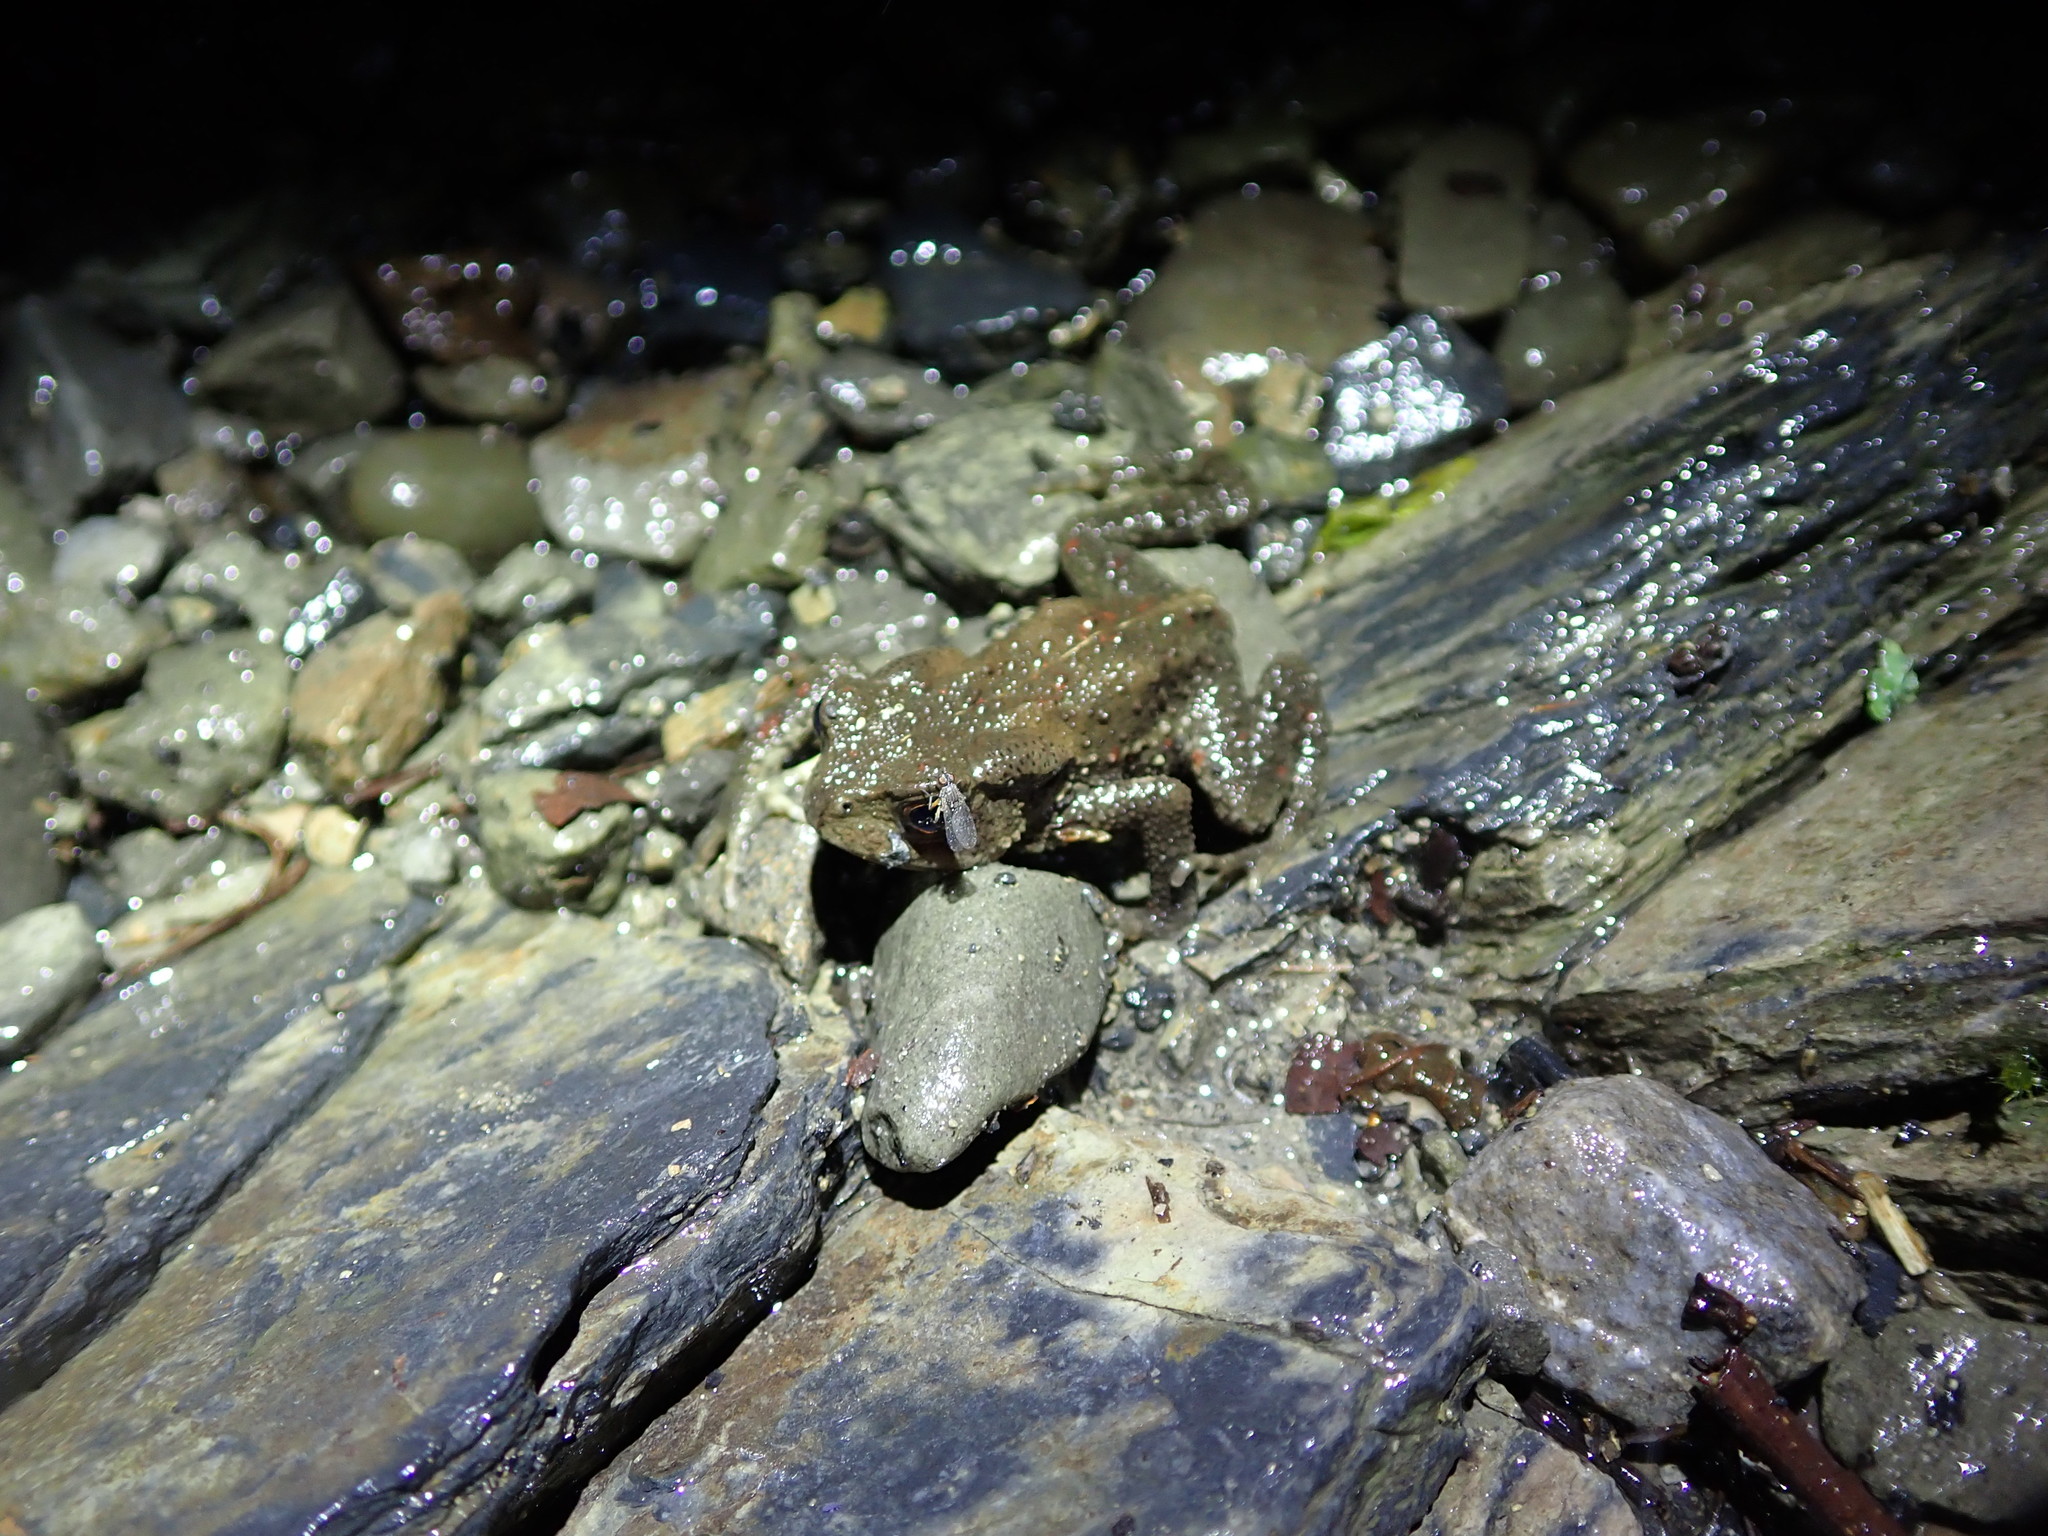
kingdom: Animalia
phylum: Chordata
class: Amphibia
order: Anura
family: Bufonidae
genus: Bufo
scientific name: Bufo bankorensis
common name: Bankor toad
